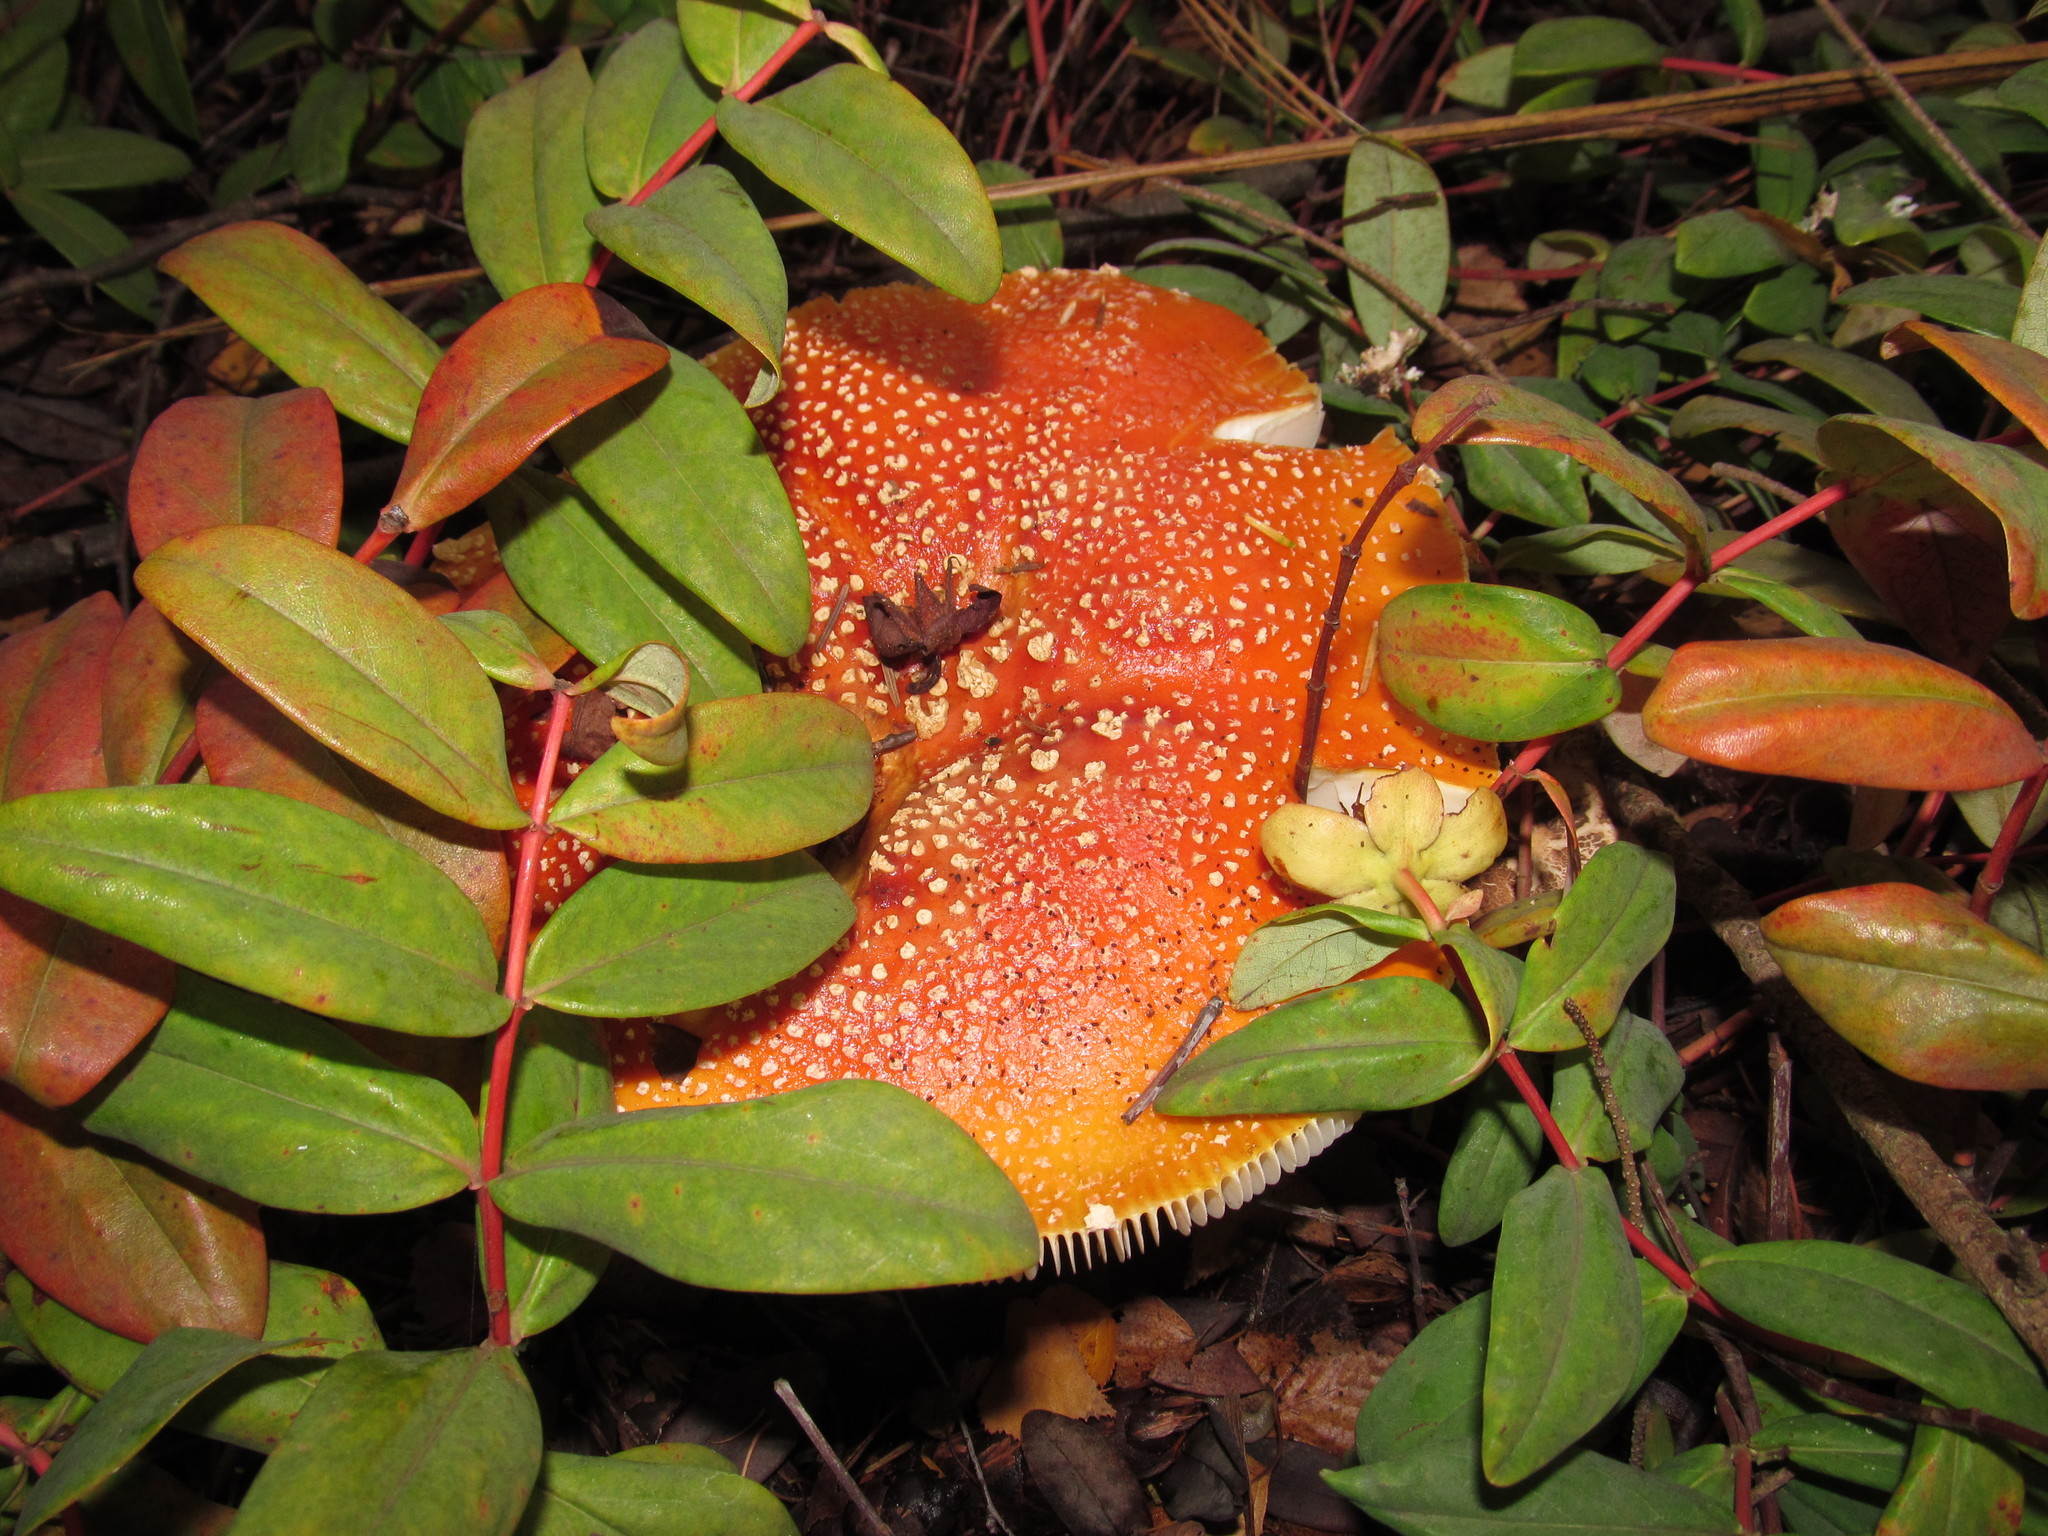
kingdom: Fungi
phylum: Basidiomycota
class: Agaricomycetes
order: Agaricales
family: Amanitaceae
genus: Amanita
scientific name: Amanita muscaria
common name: Fly agaric
